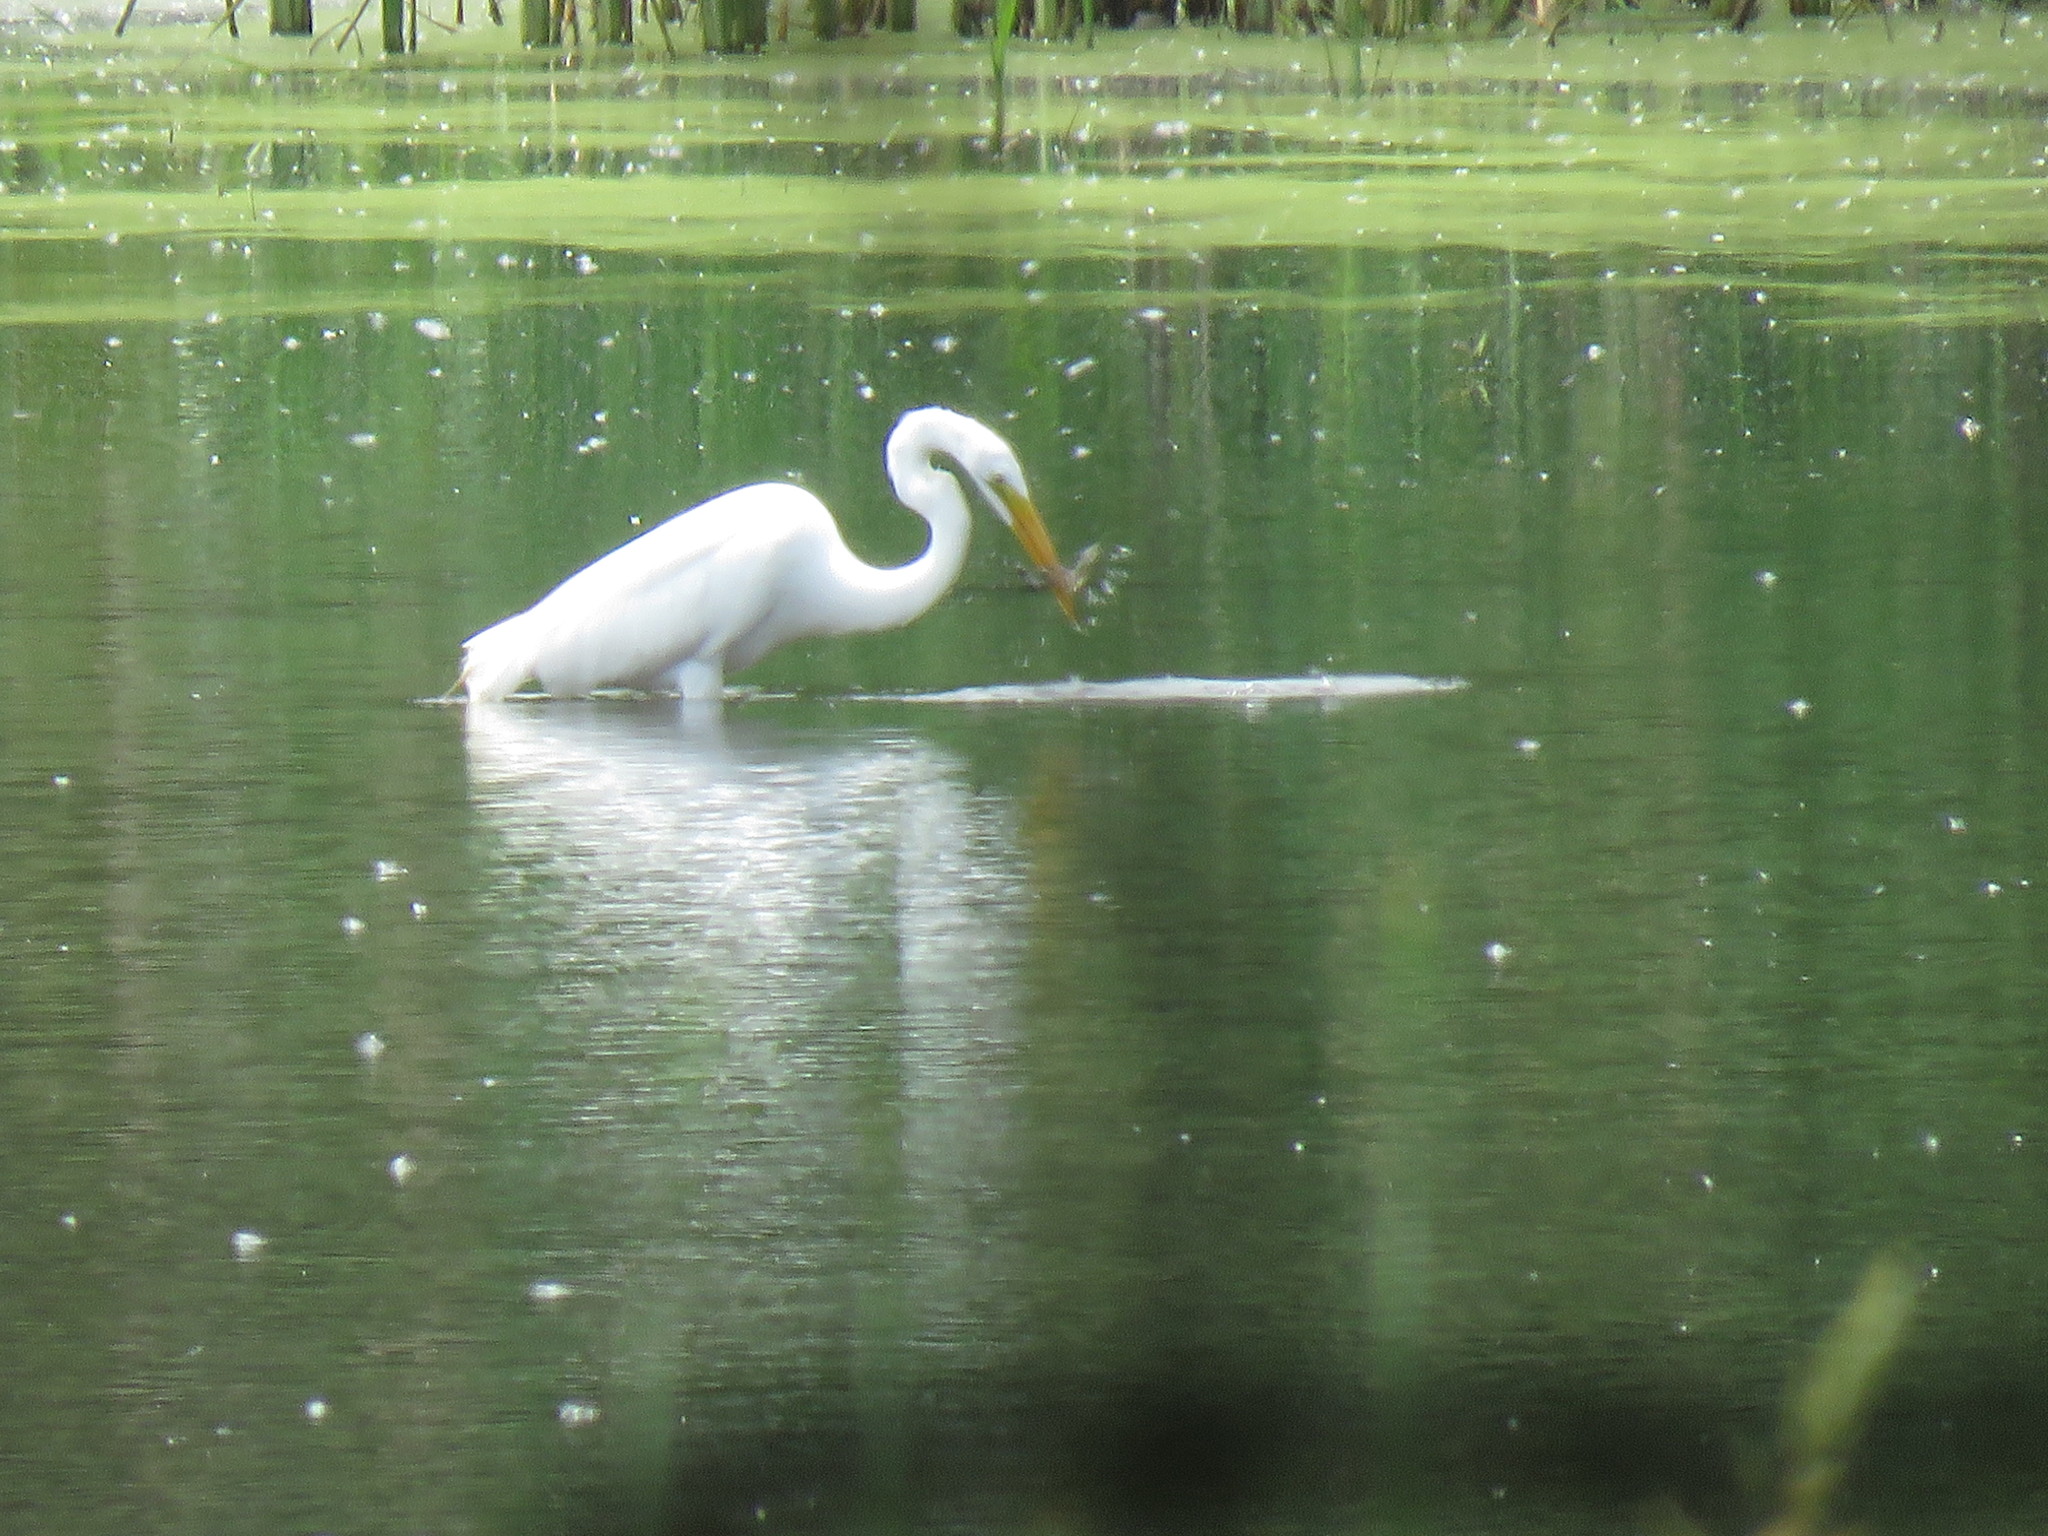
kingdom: Animalia
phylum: Chordata
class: Aves
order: Pelecaniformes
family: Ardeidae
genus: Ardea
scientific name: Ardea alba
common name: Great egret
